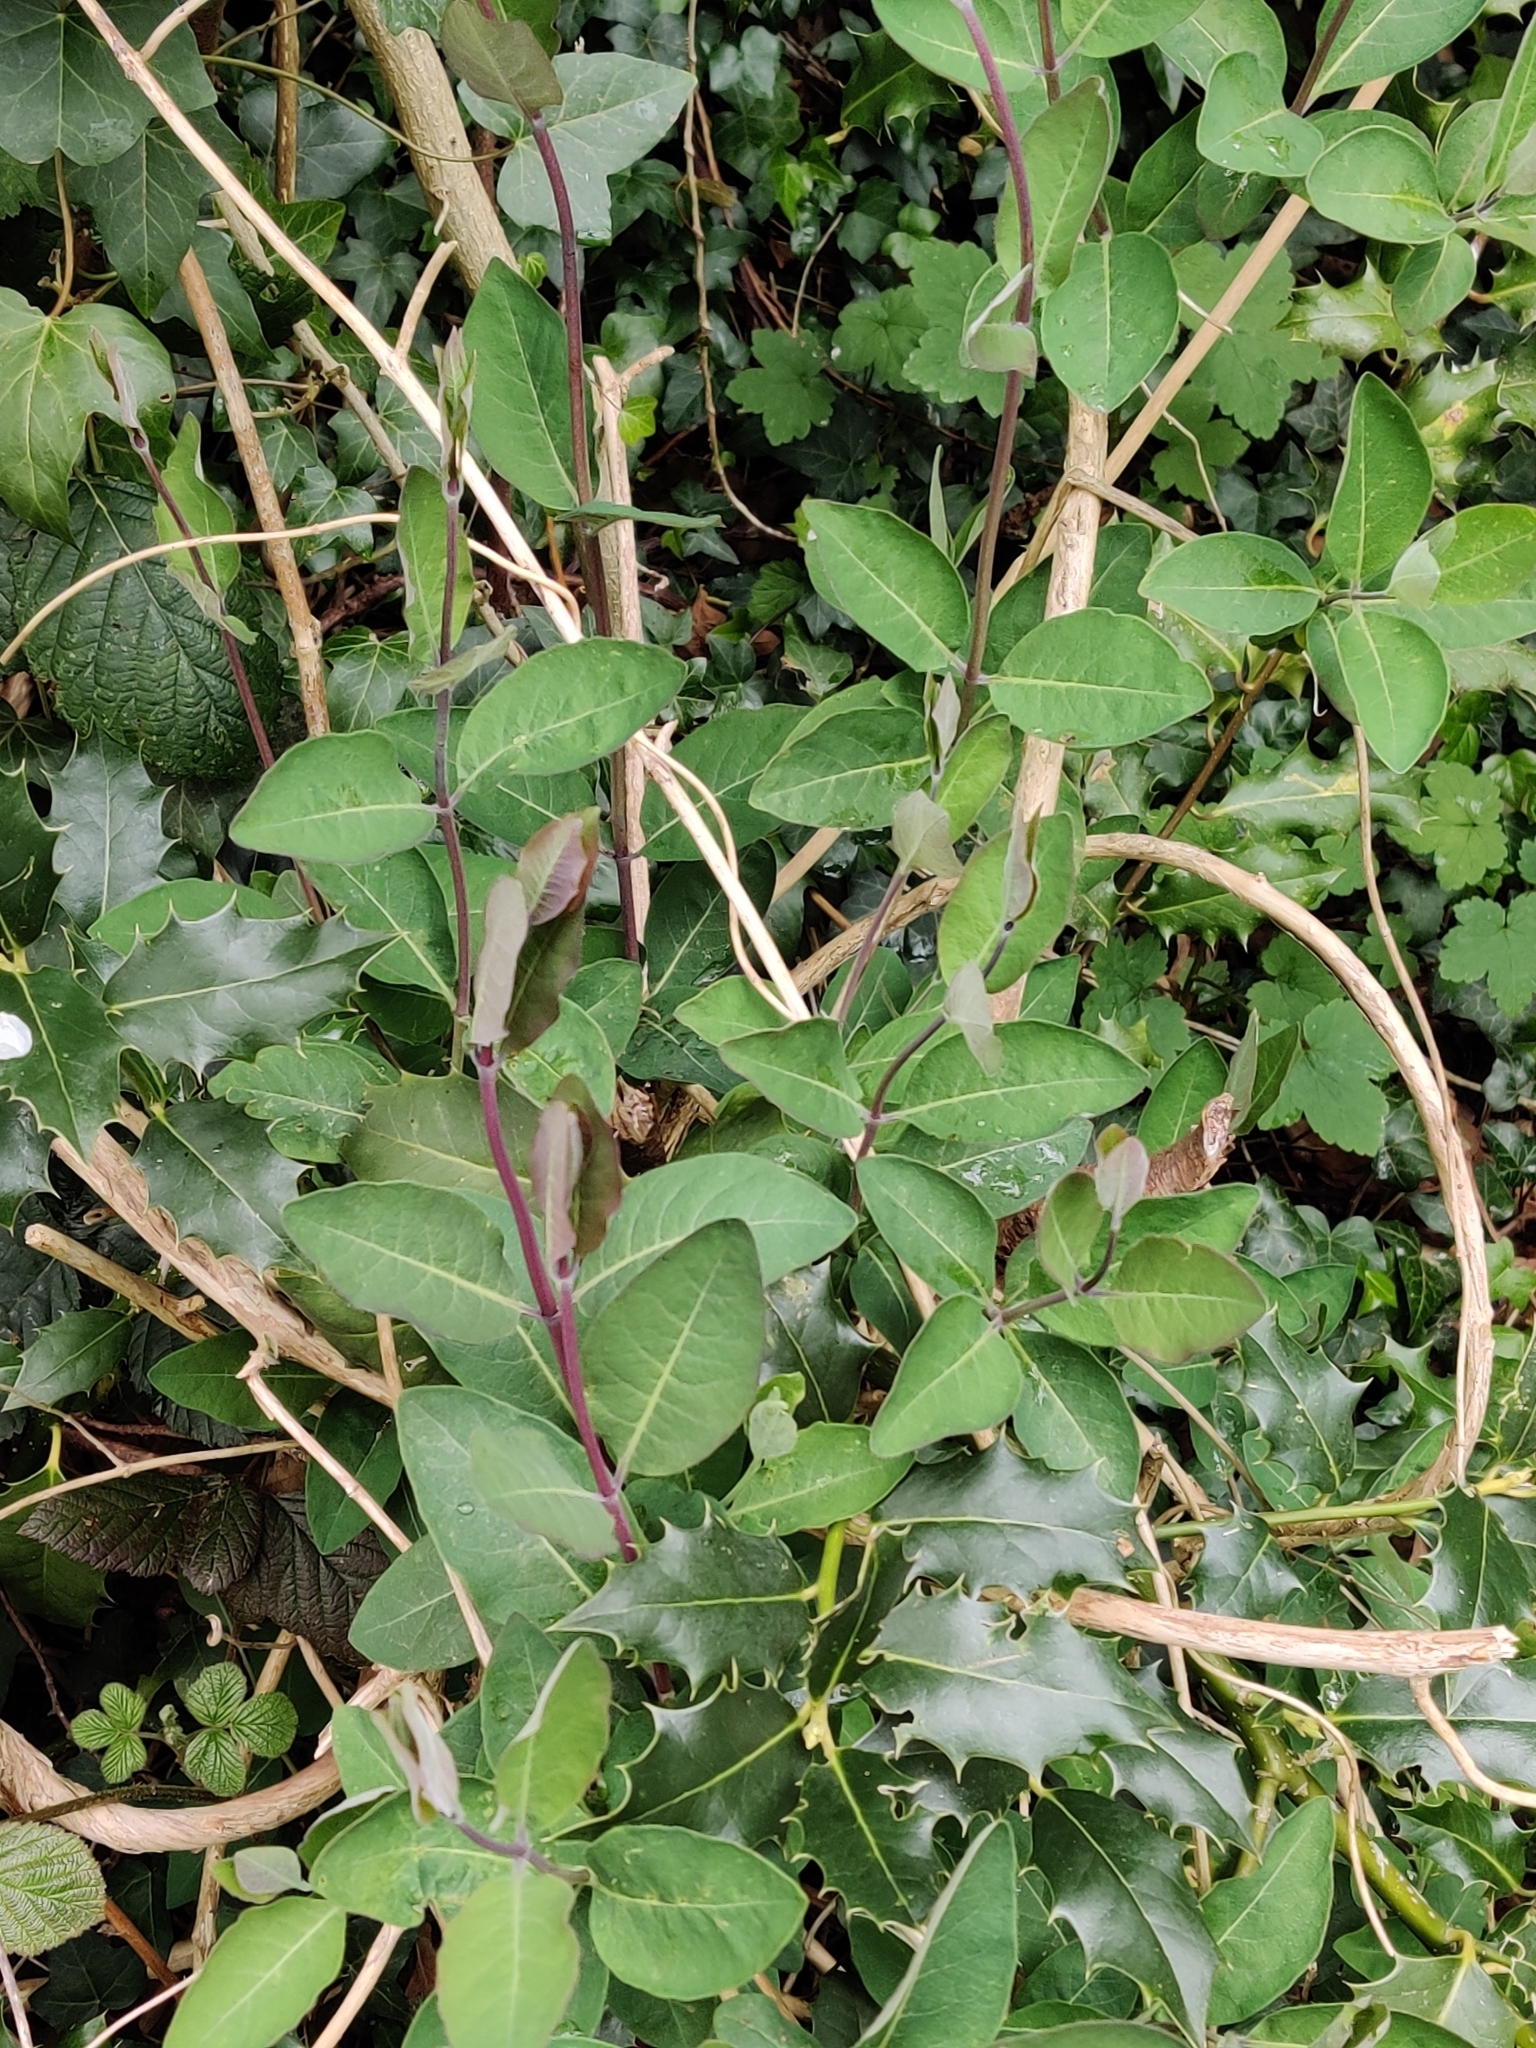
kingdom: Plantae
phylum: Tracheophyta
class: Magnoliopsida
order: Dipsacales
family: Caprifoliaceae
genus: Lonicera
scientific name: Lonicera periclymenum
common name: European honeysuckle
